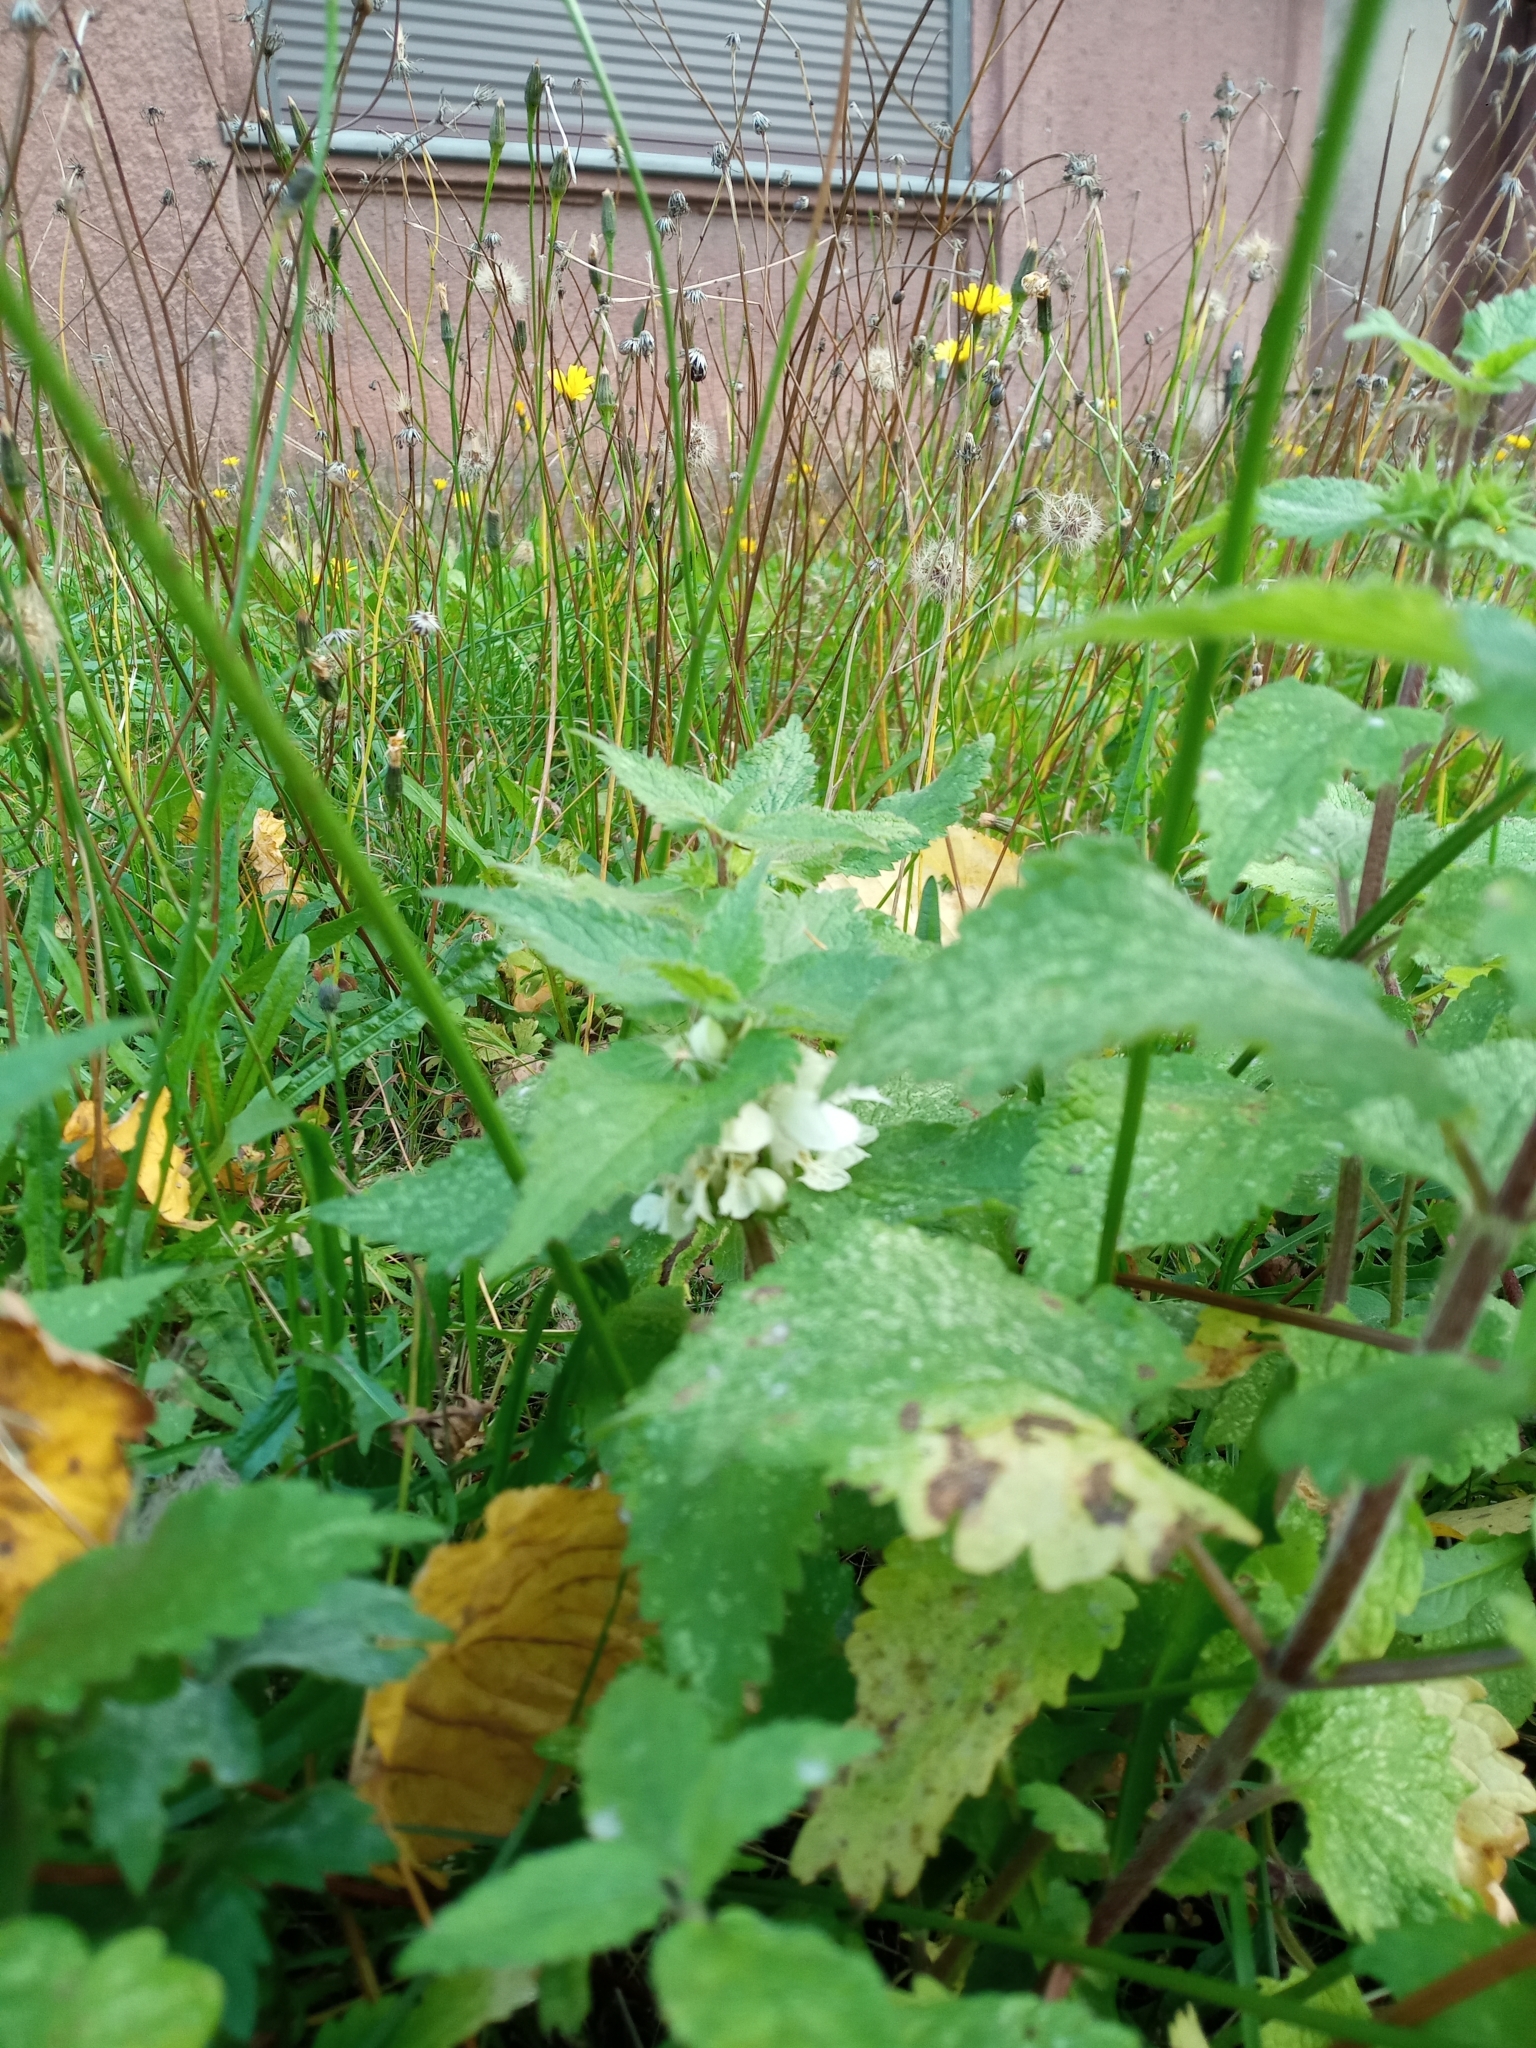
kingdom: Plantae
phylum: Tracheophyta
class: Magnoliopsida
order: Lamiales
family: Lamiaceae
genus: Lamium
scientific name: Lamium album
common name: White dead-nettle
